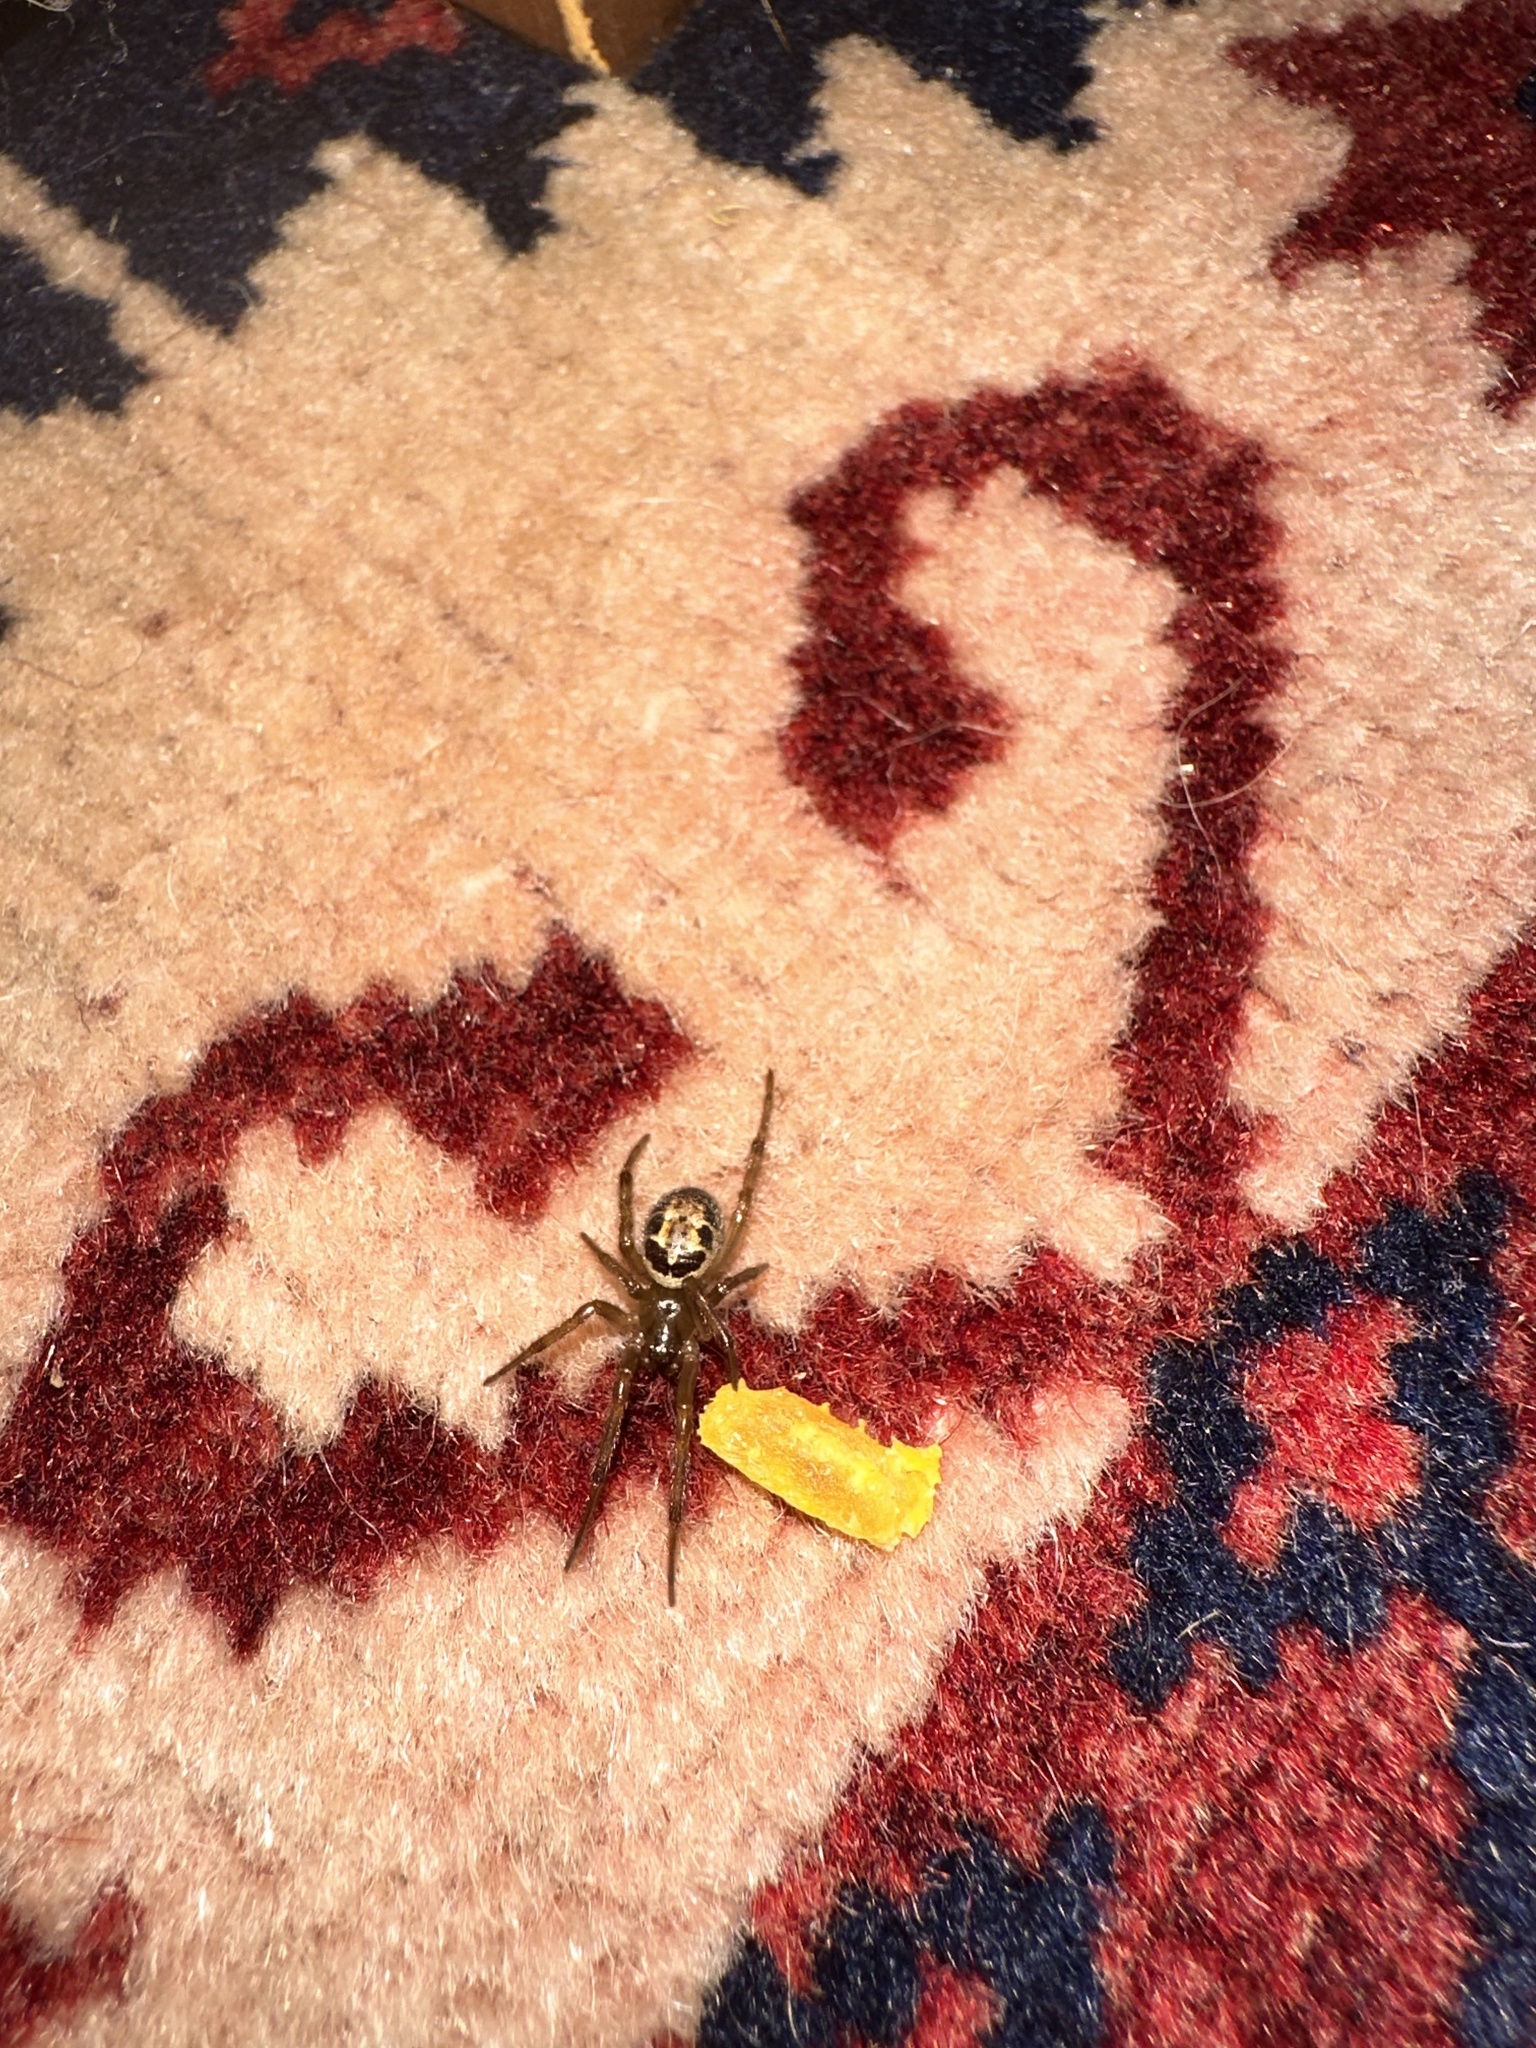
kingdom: Animalia
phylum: Arthropoda
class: Arachnida
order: Araneae
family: Theridiidae
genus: Steatoda
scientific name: Steatoda nobilis
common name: Cobweb weaver
